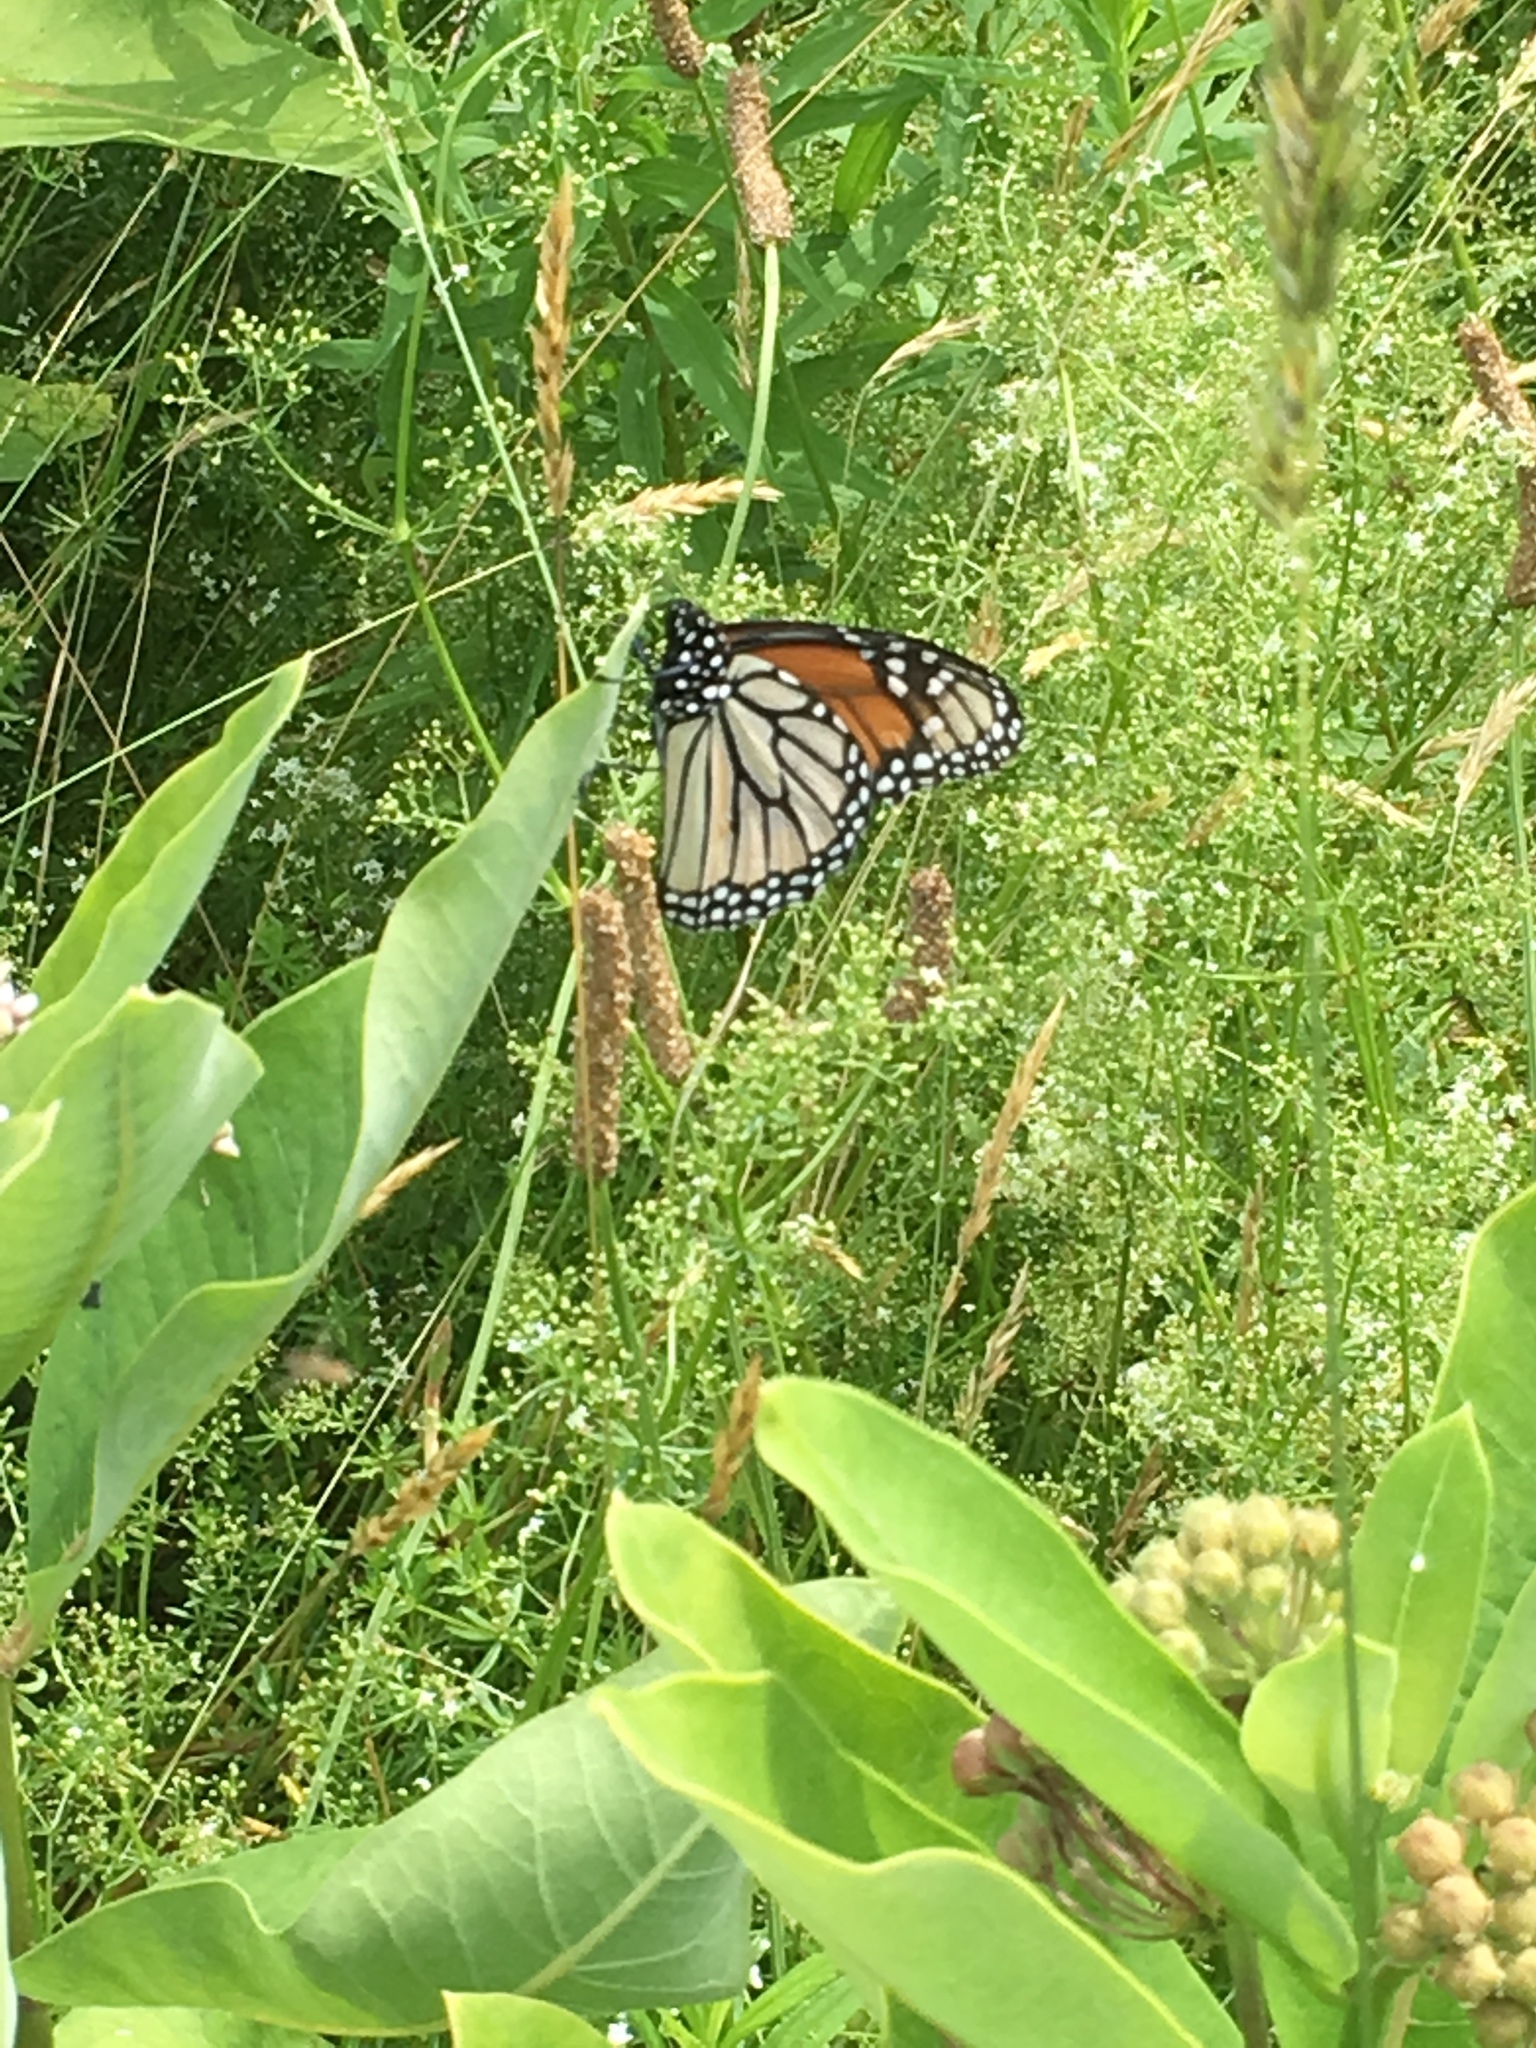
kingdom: Animalia
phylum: Arthropoda
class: Insecta
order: Lepidoptera
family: Nymphalidae
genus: Danaus
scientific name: Danaus plexippus
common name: Monarch
